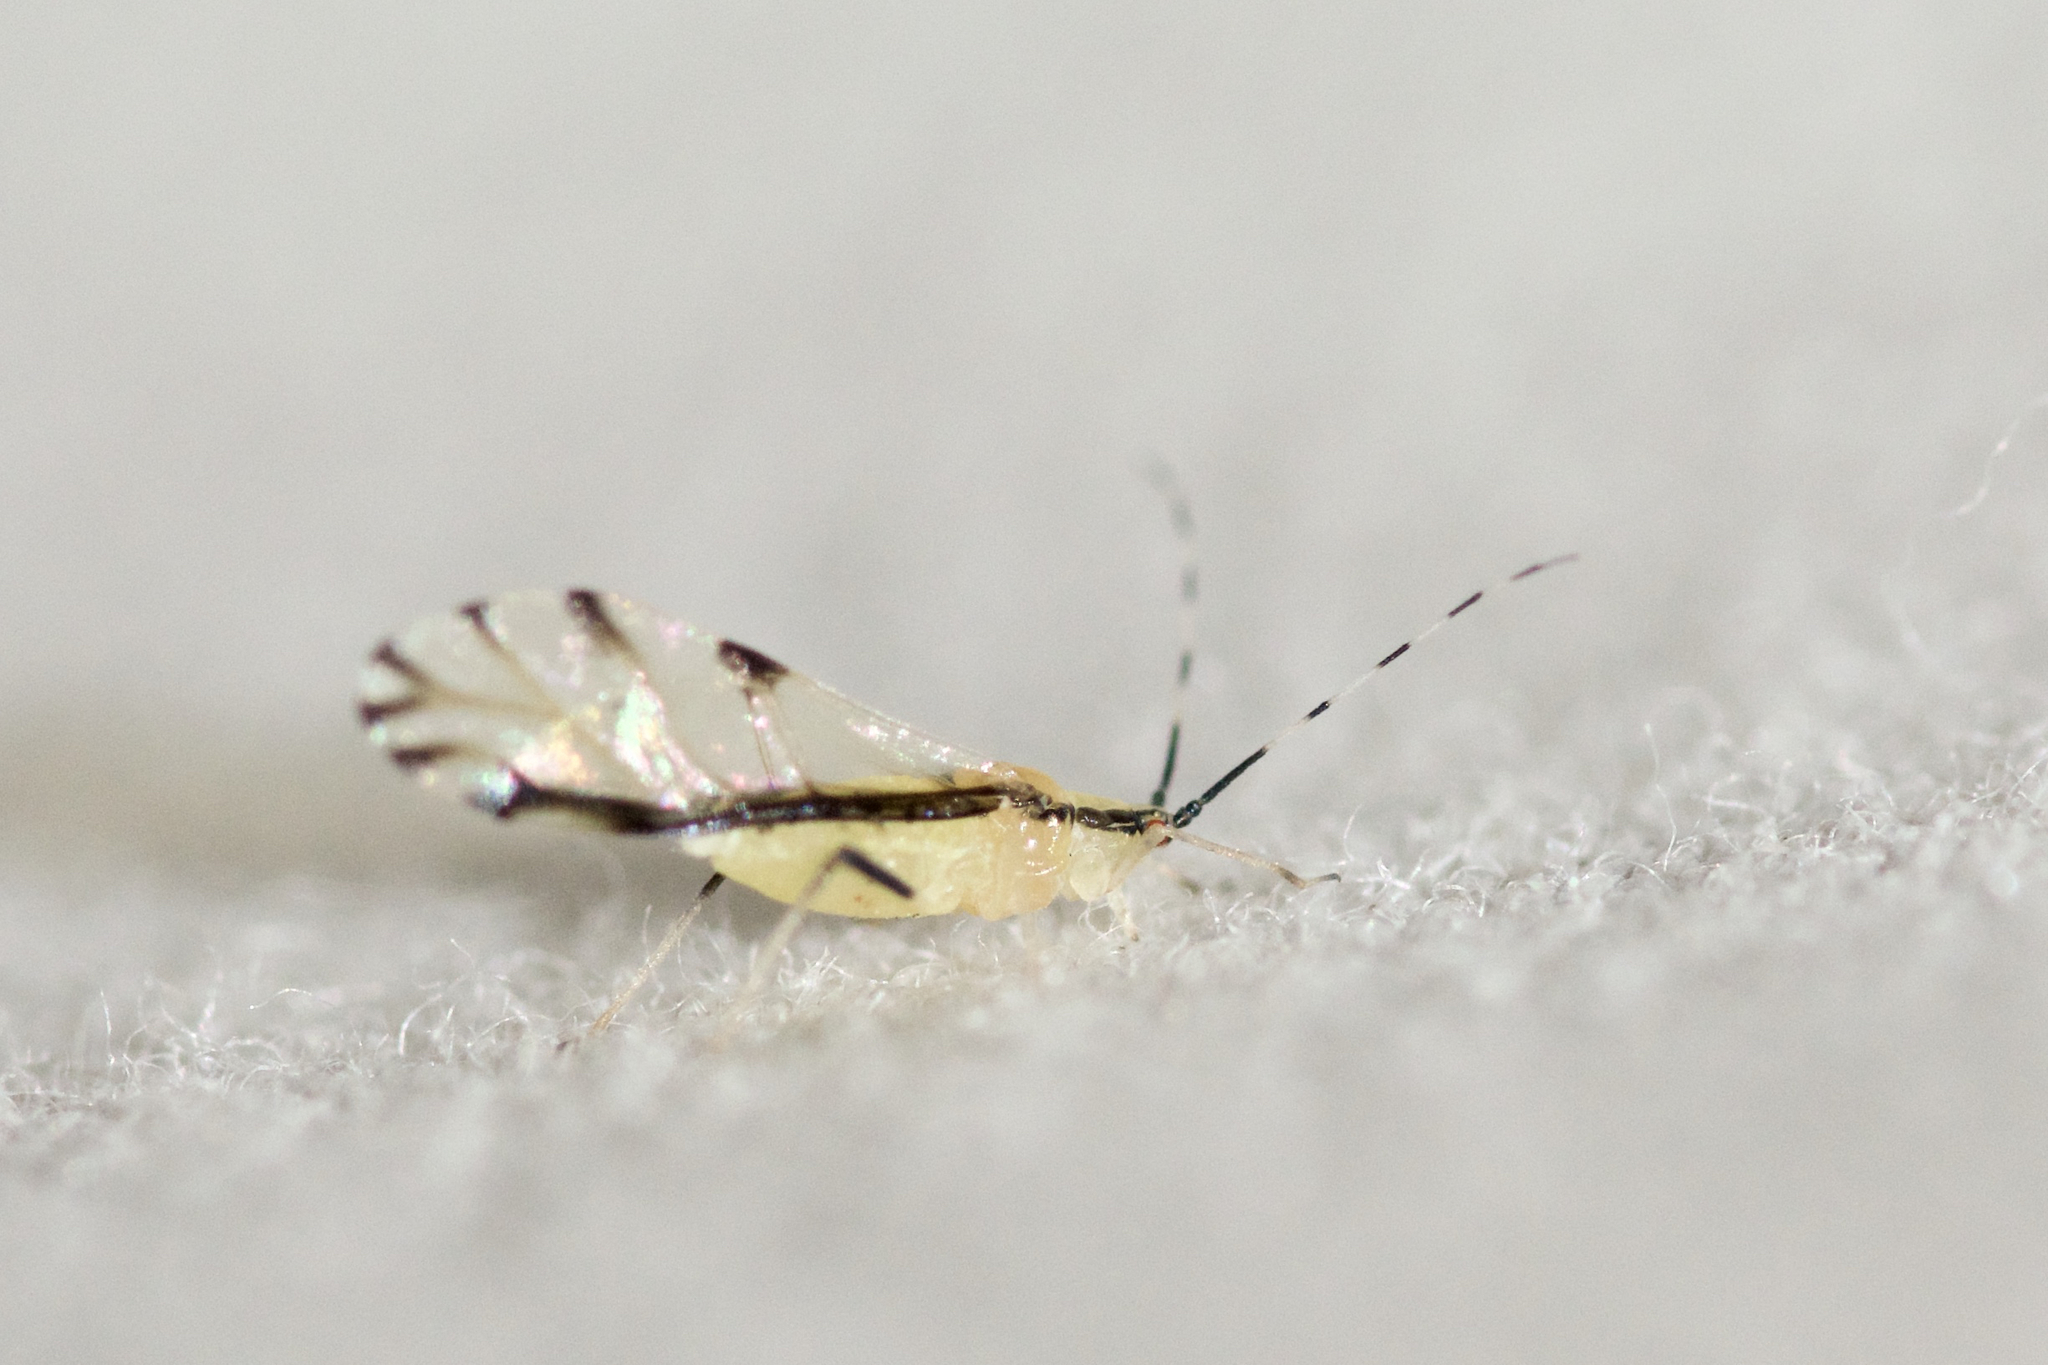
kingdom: Animalia
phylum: Arthropoda
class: Insecta
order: Hemiptera
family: Aphididae
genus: Eucallipterus
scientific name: Eucallipterus tiliae
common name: Aphid
